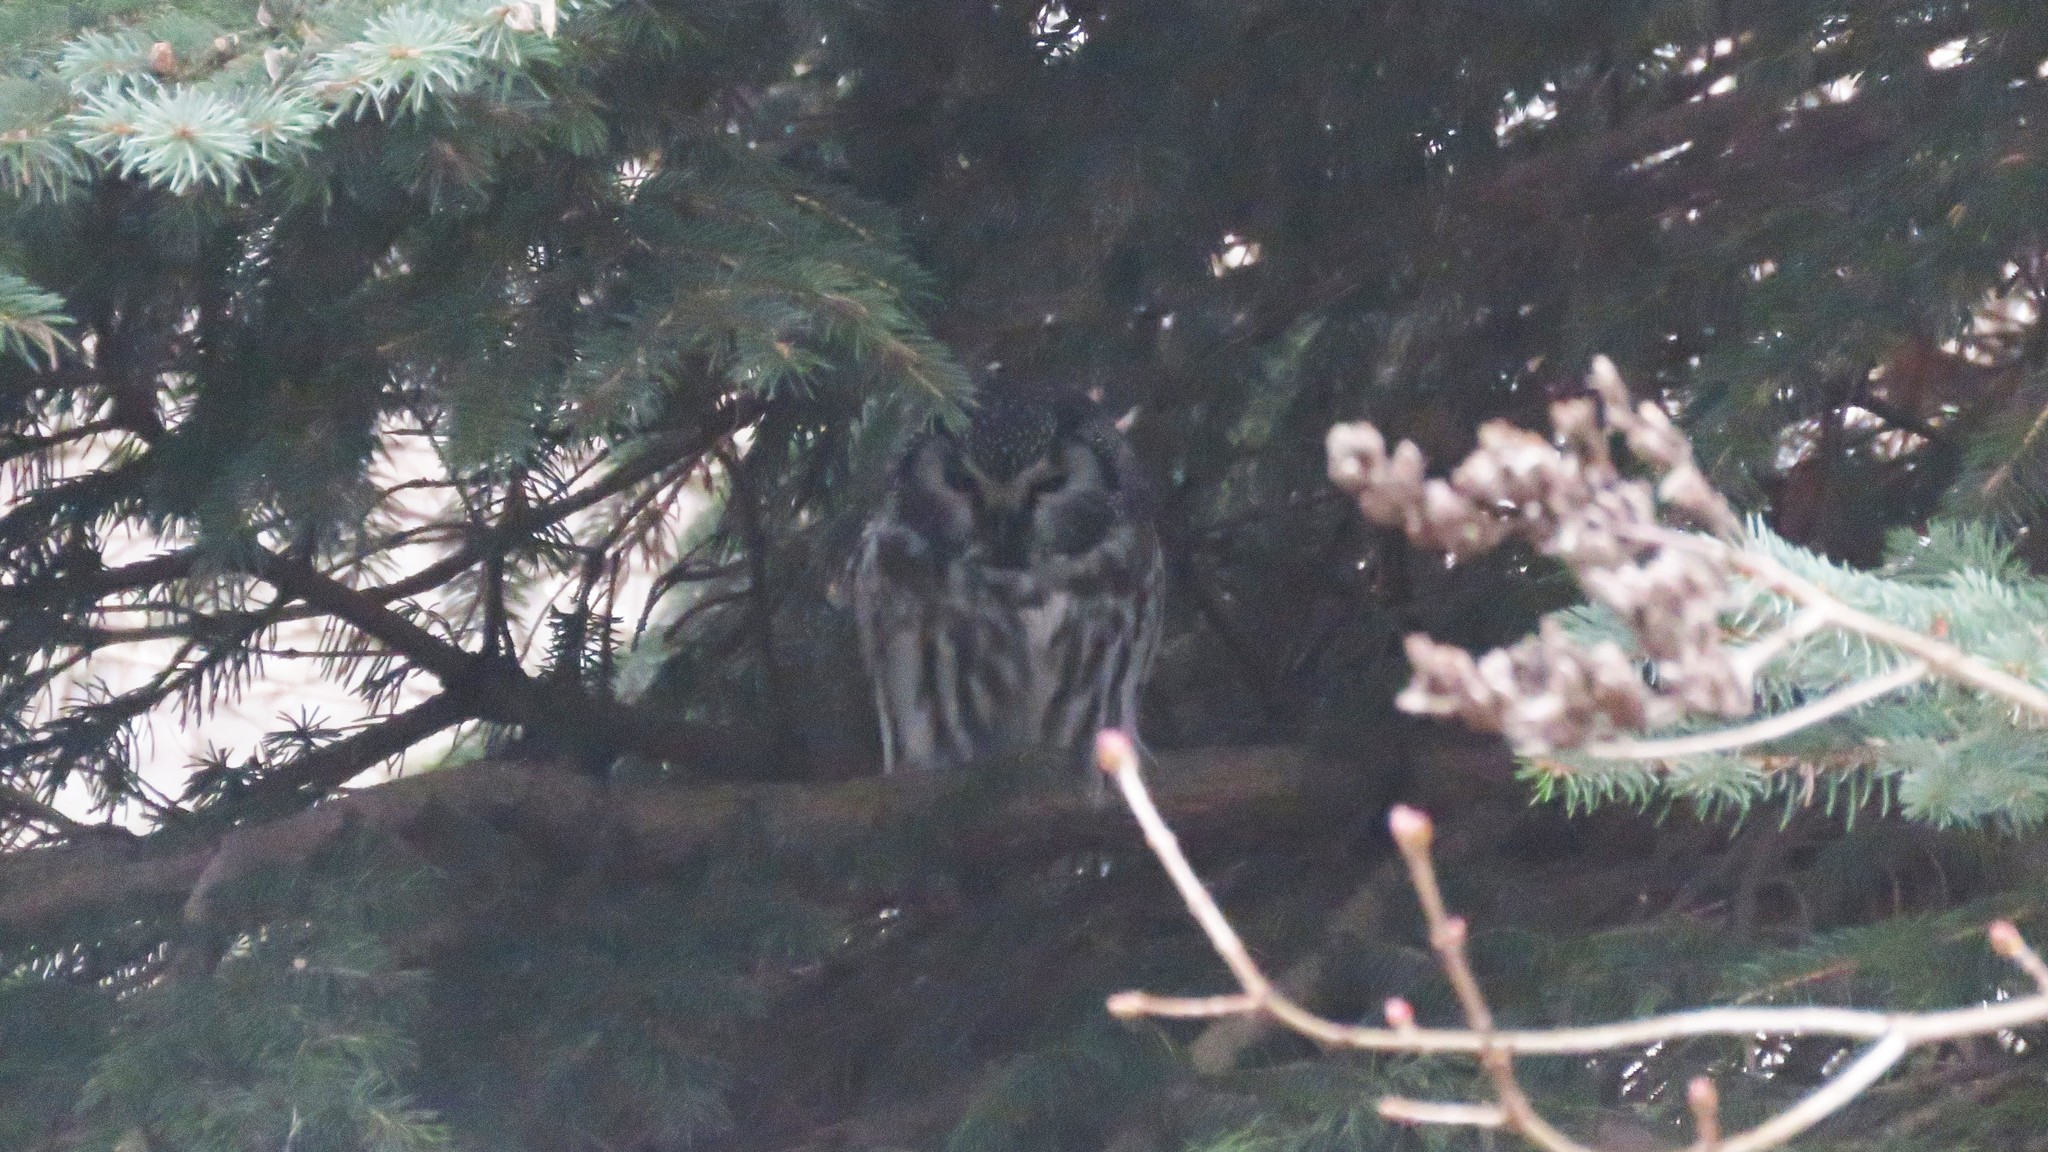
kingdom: Animalia
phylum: Chordata
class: Aves
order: Strigiformes
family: Strigidae
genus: Aegolius
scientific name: Aegolius funereus
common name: Boreal owl
